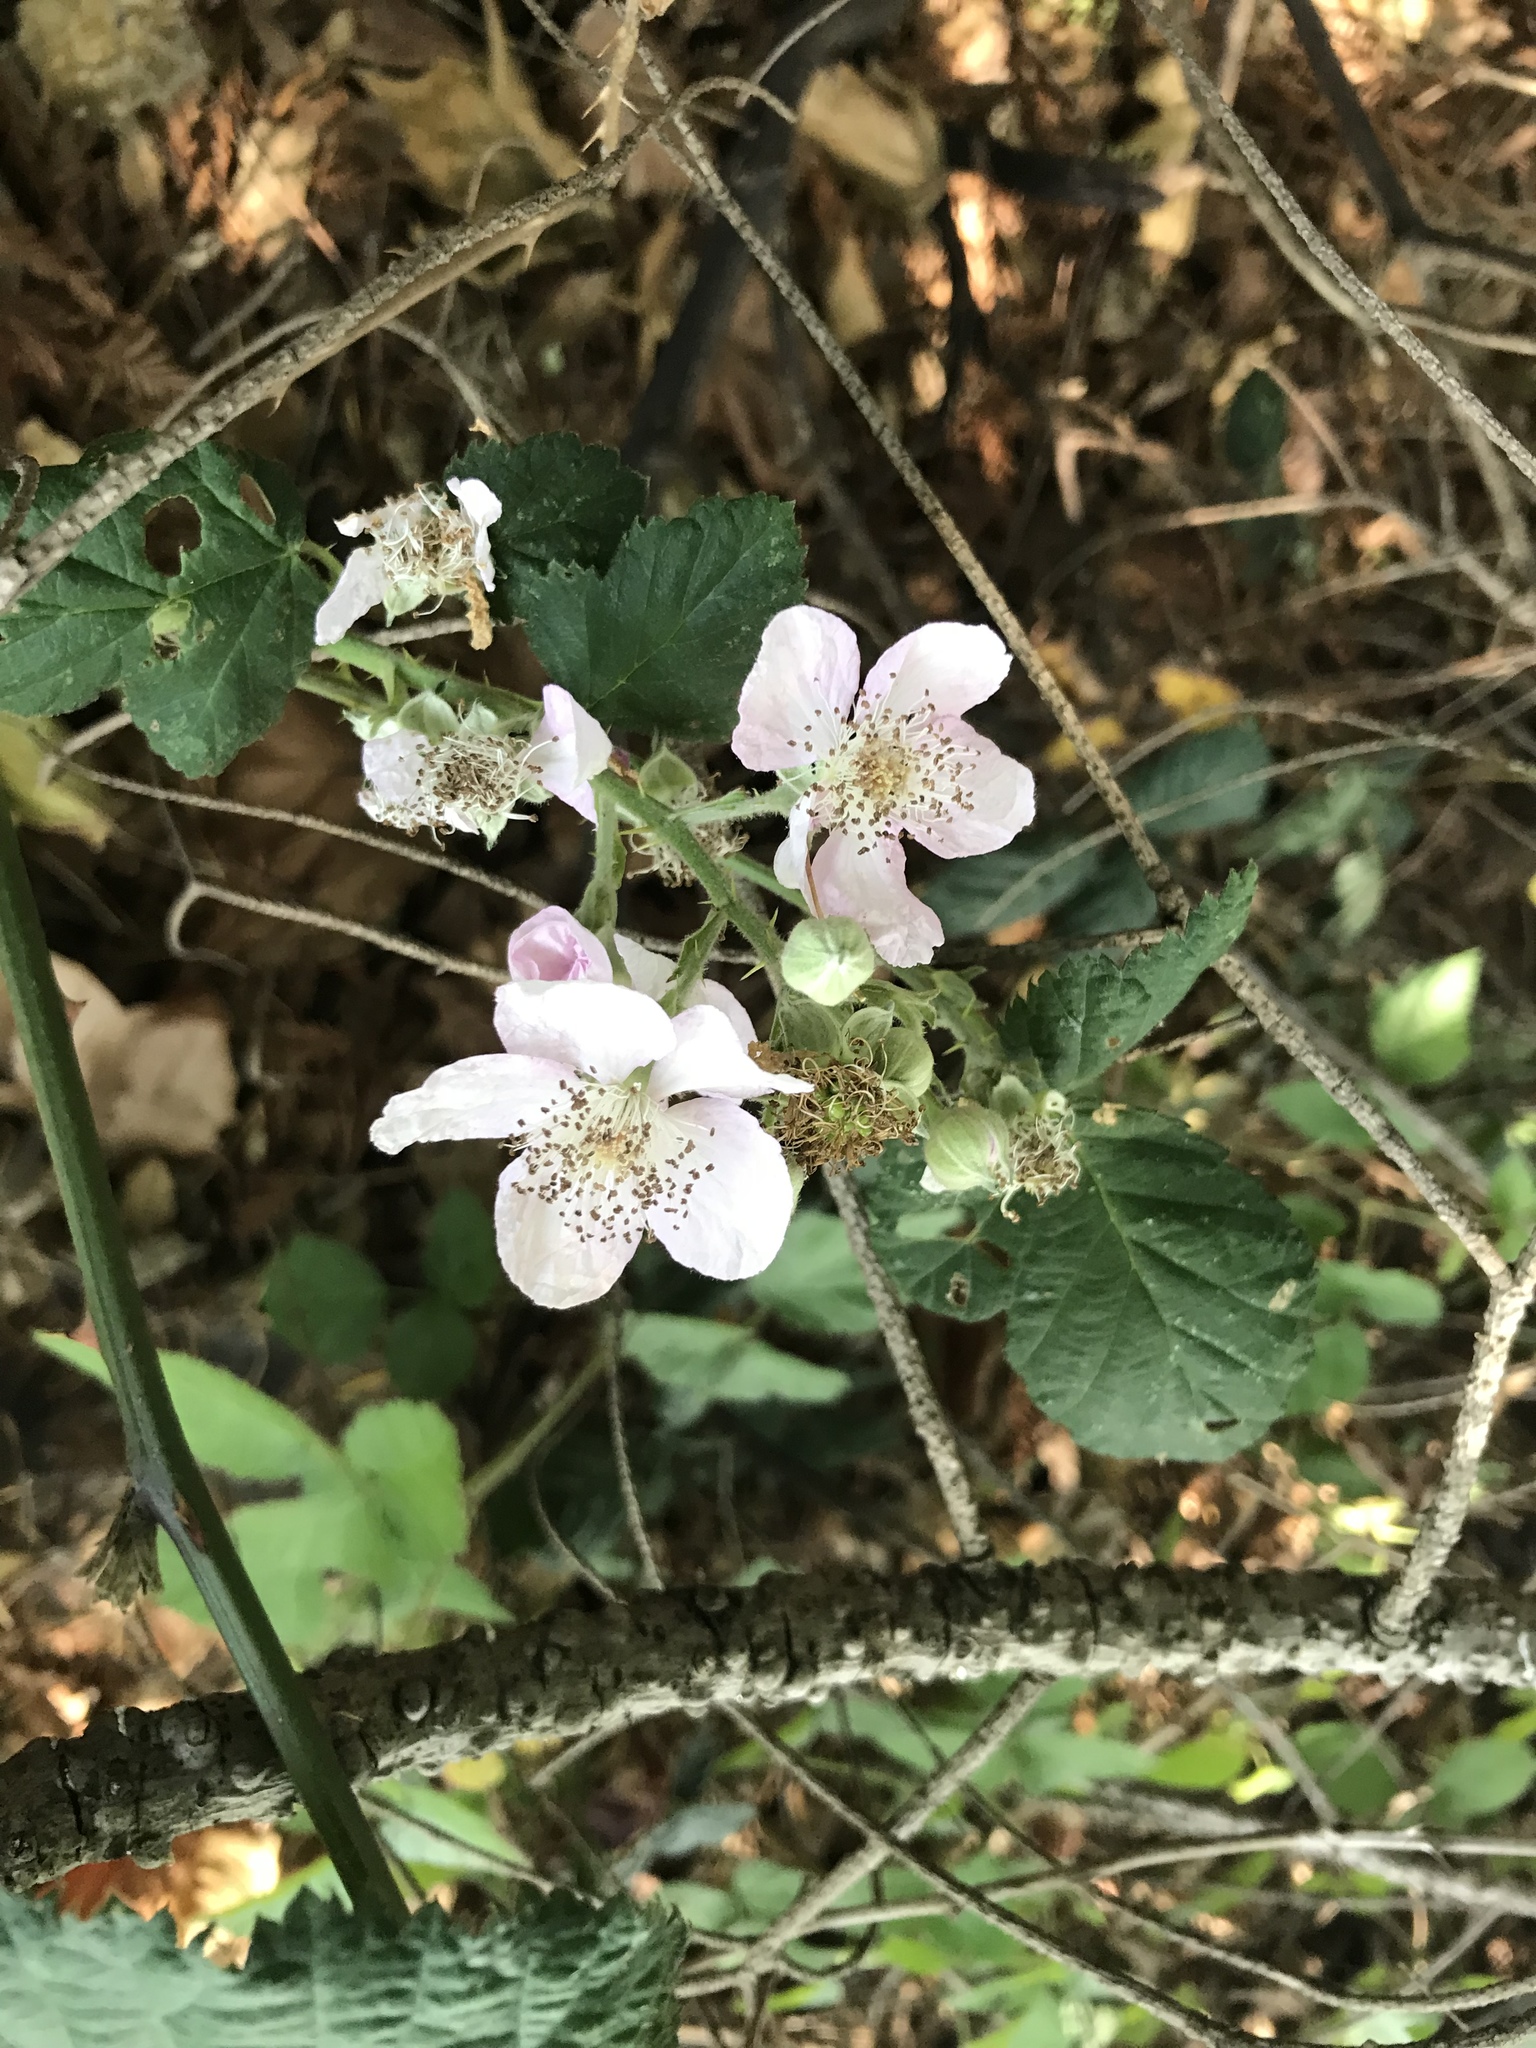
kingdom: Plantae
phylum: Tracheophyta
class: Magnoliopsida
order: Rosales
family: Rosaceae
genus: Rubus
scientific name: Rubus armeniacus
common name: Himalayan blackberry
